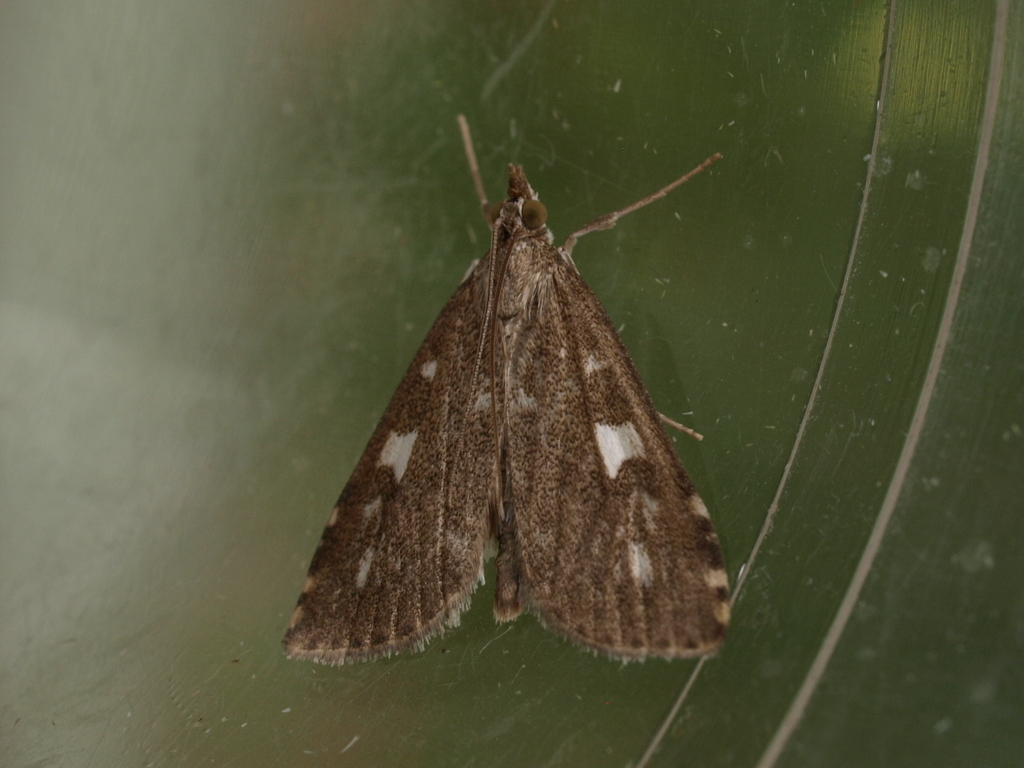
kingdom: Animalia
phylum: Arthropoda
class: Insecta
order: Lepidoptera
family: Crambidae
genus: Udea
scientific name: Udea olivalis
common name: Olive pearl
